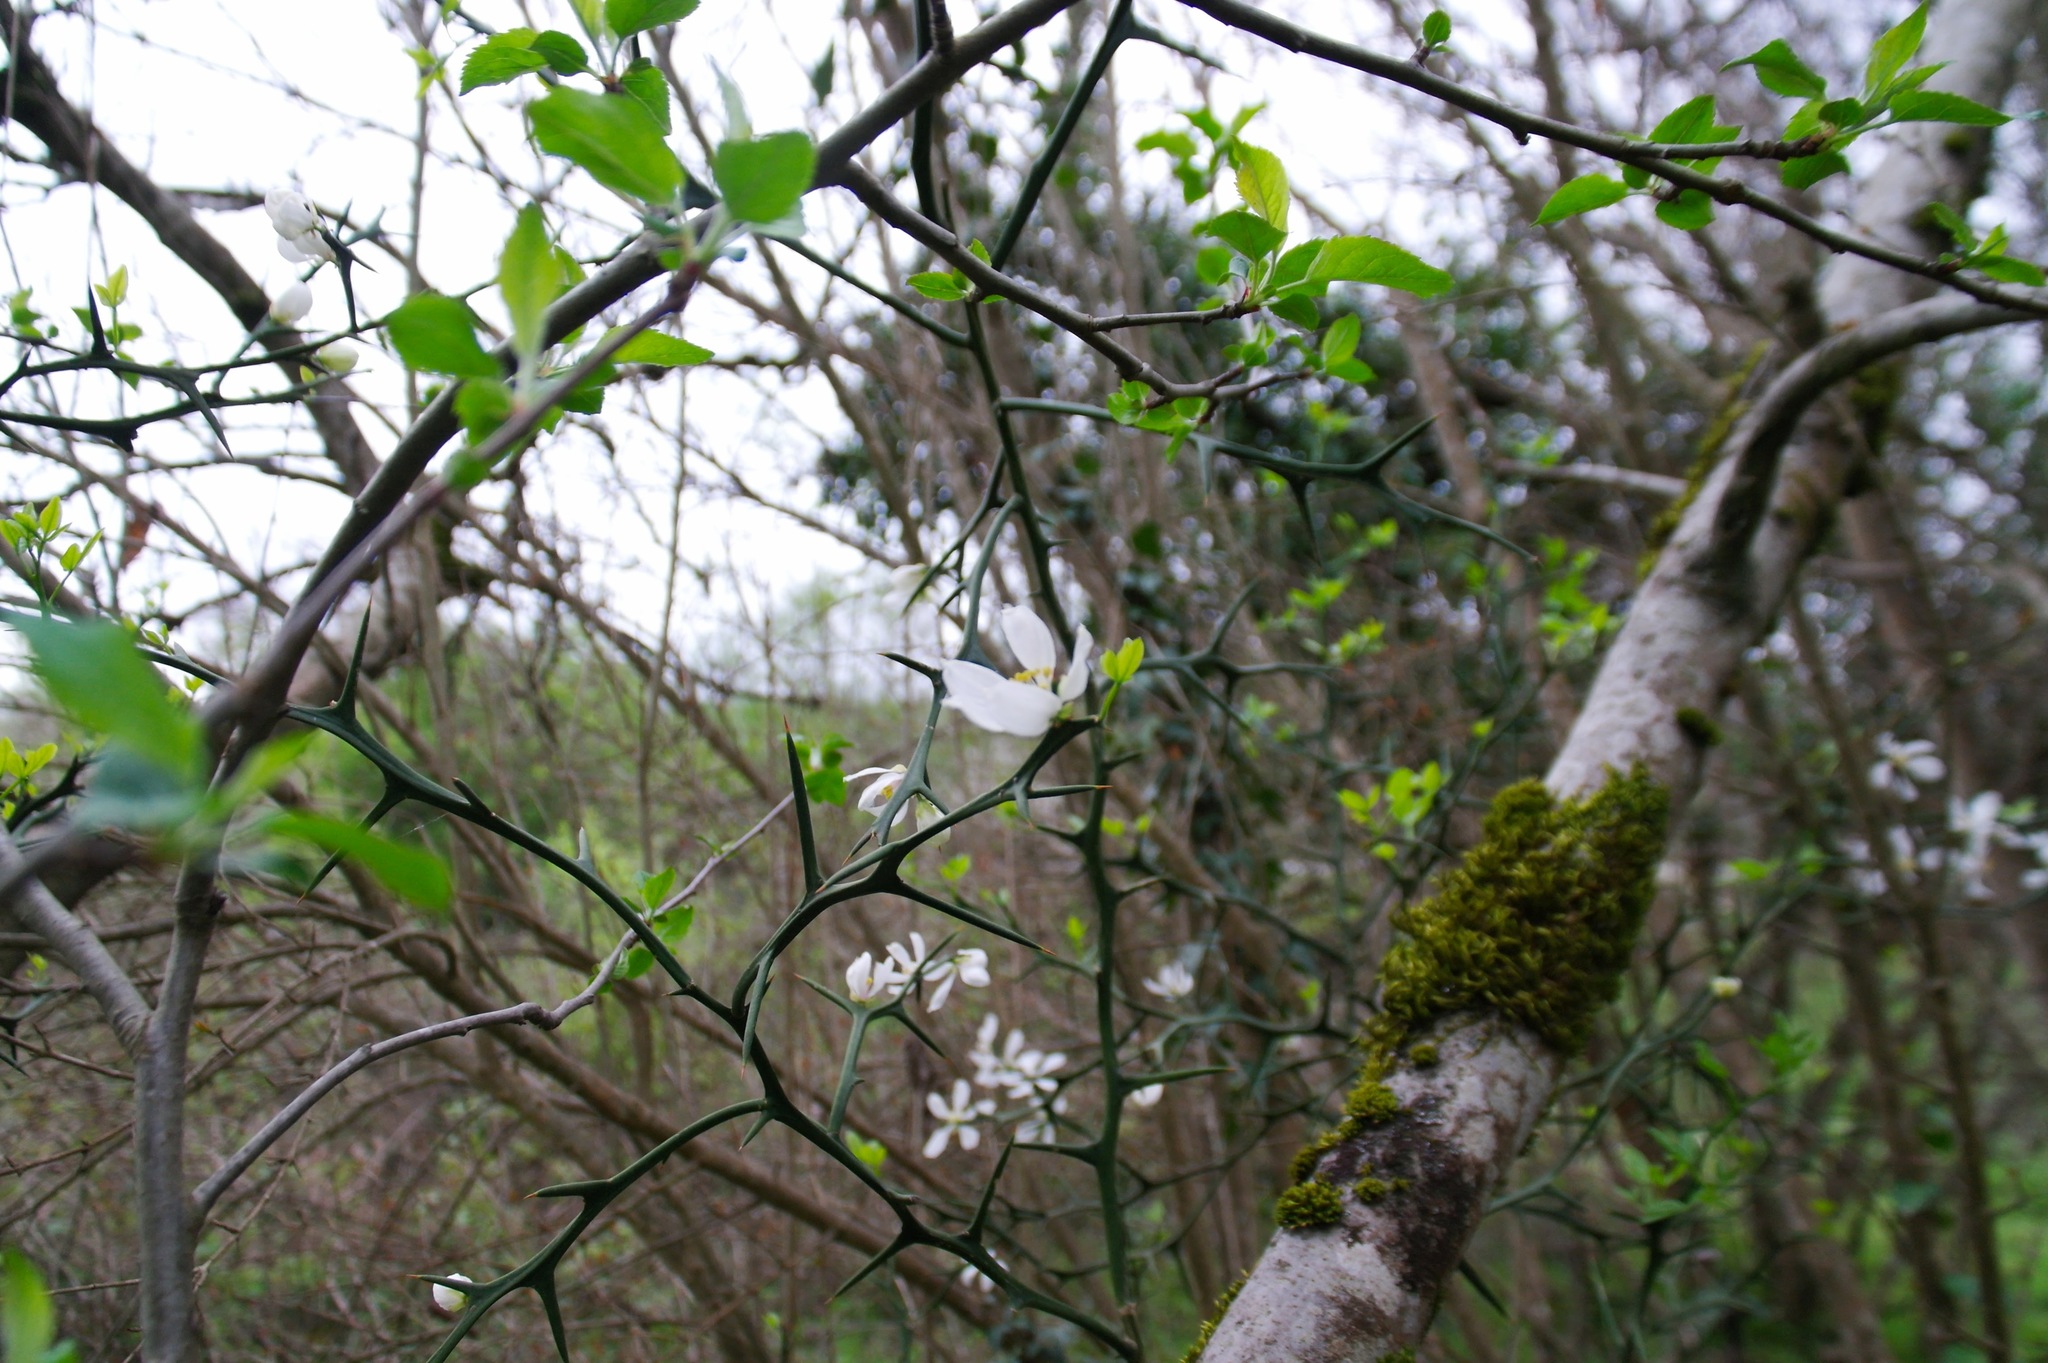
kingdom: Plantae
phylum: Tracheophyta
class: Magnoliopsida
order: Sapindales
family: Rutaceae
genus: Citrus
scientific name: Citrus trifoliata
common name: Japanese bitter-orange
